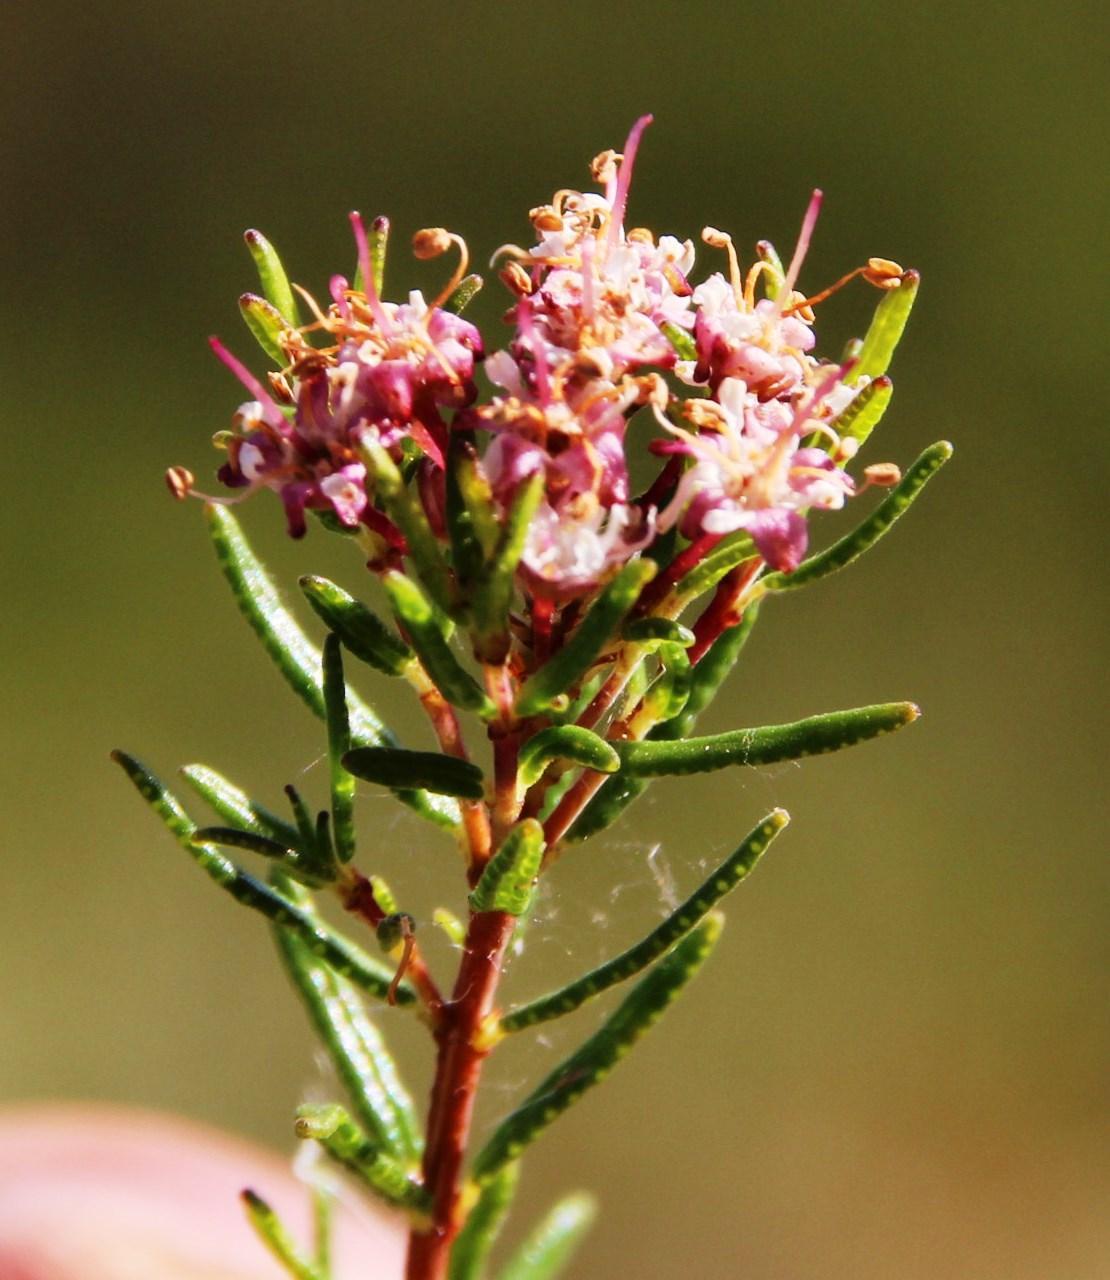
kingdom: Plantae
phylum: Tracheophyta
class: Magnoliopsida
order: Sapindales
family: Rutaceae
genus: Agathosma
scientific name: Agathosma foetidissima
